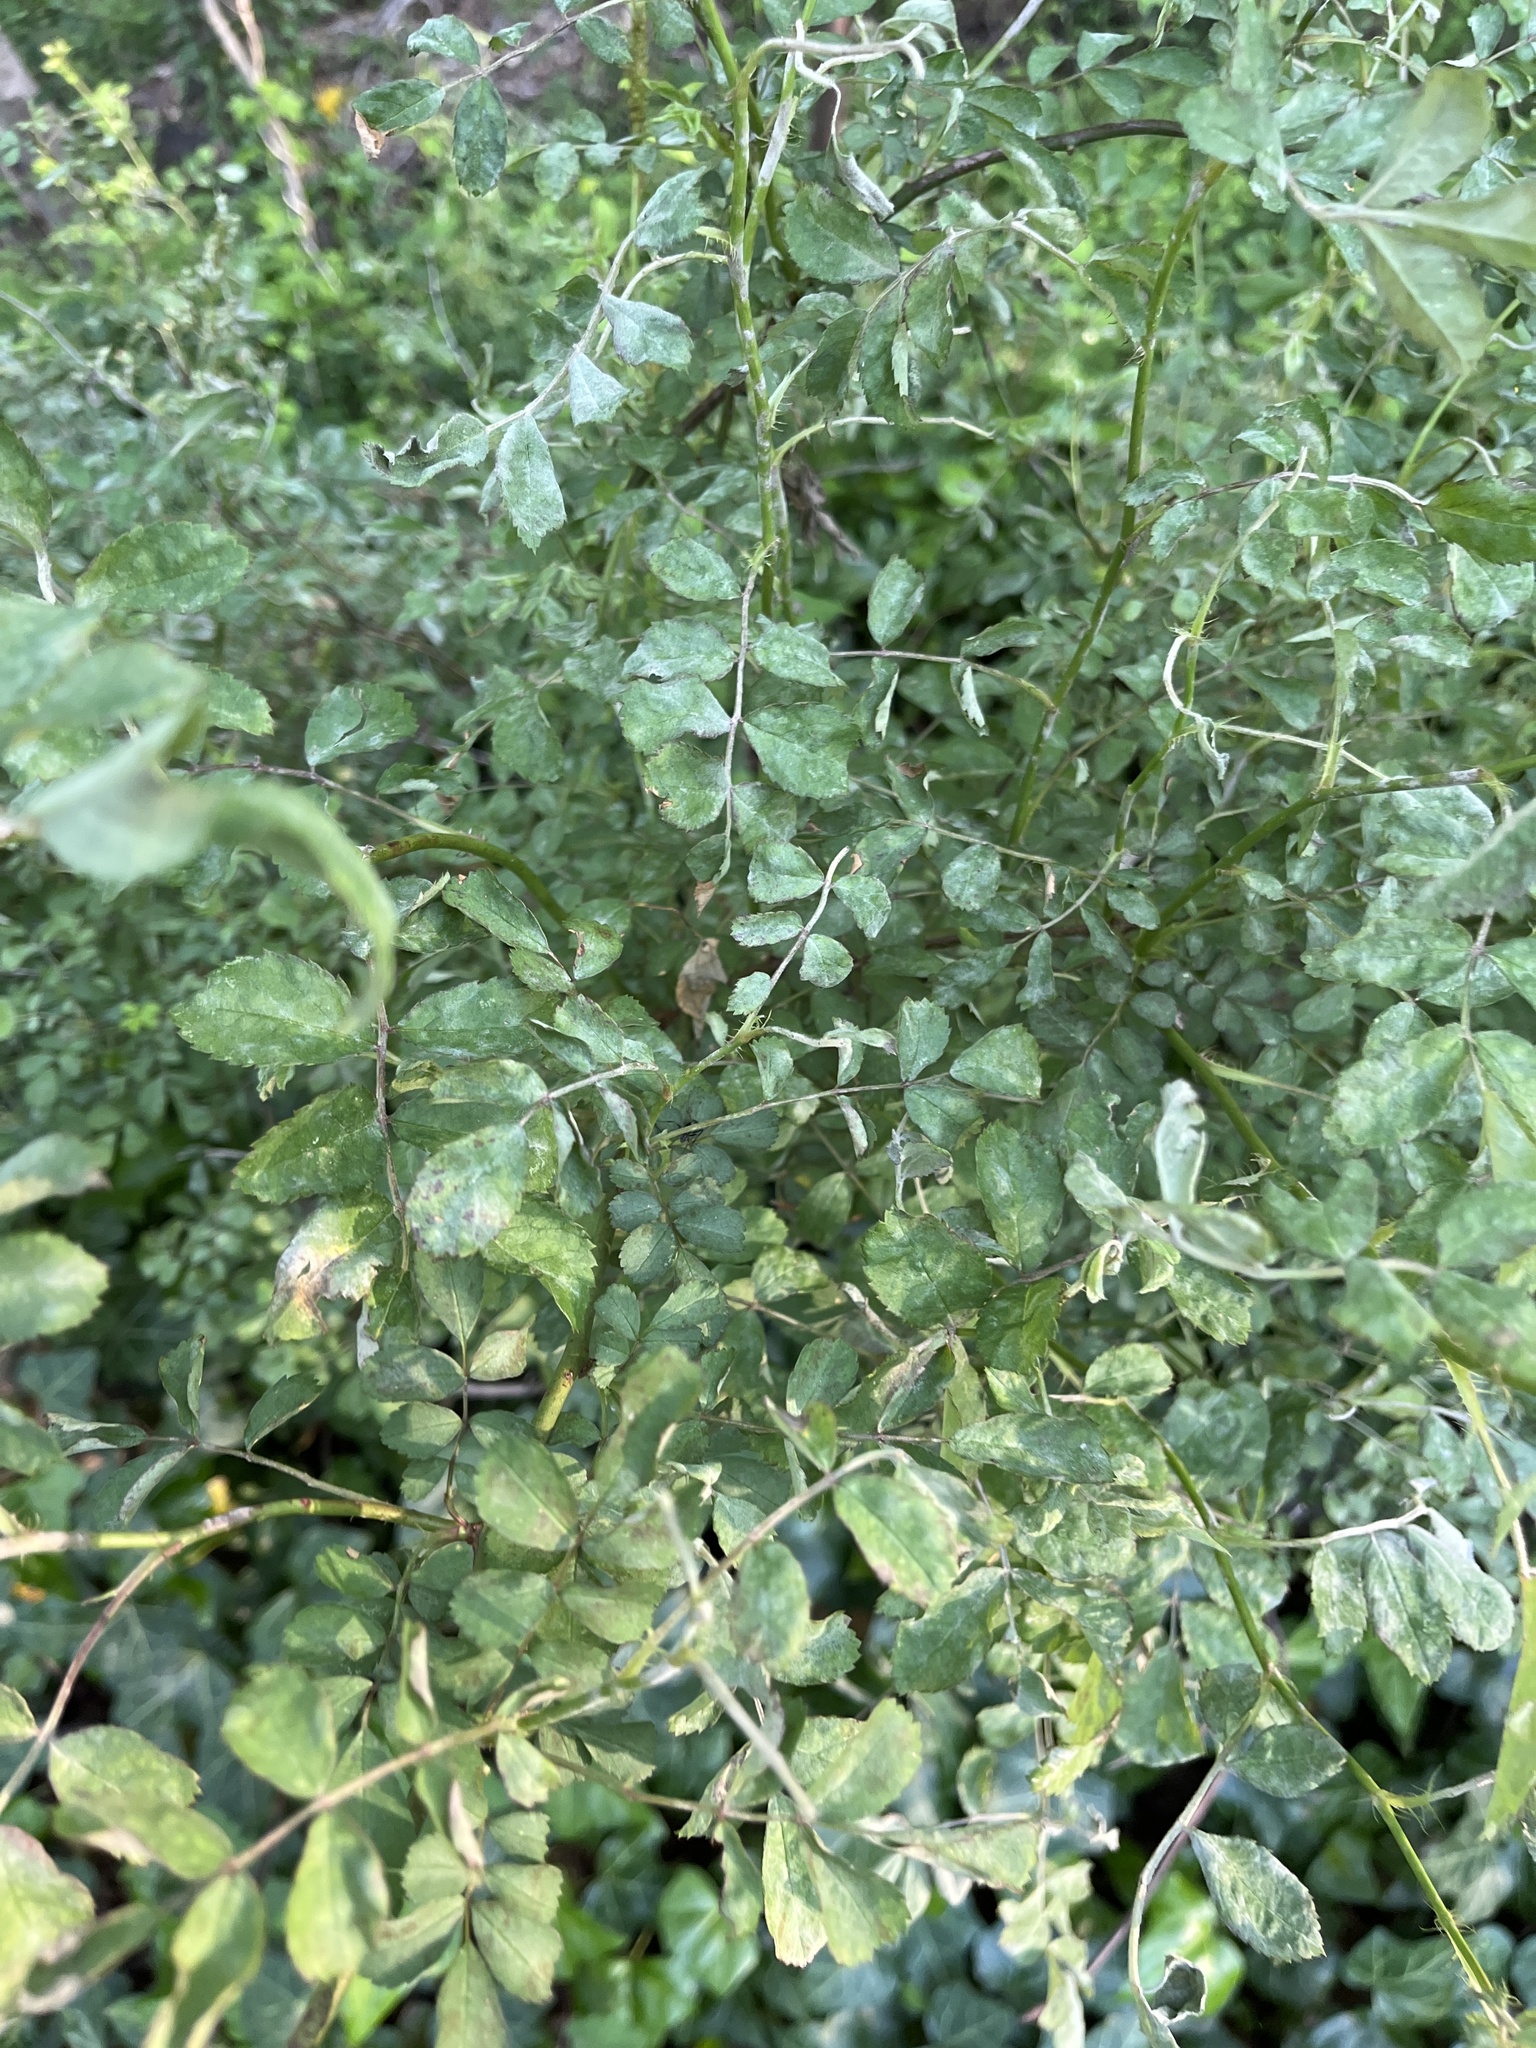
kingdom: Plantae
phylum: Tracheophyta
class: Magnoliopsida
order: Rosales
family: Rosaceae
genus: Rosa
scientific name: Rosa multiflora
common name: Multiflora rose
